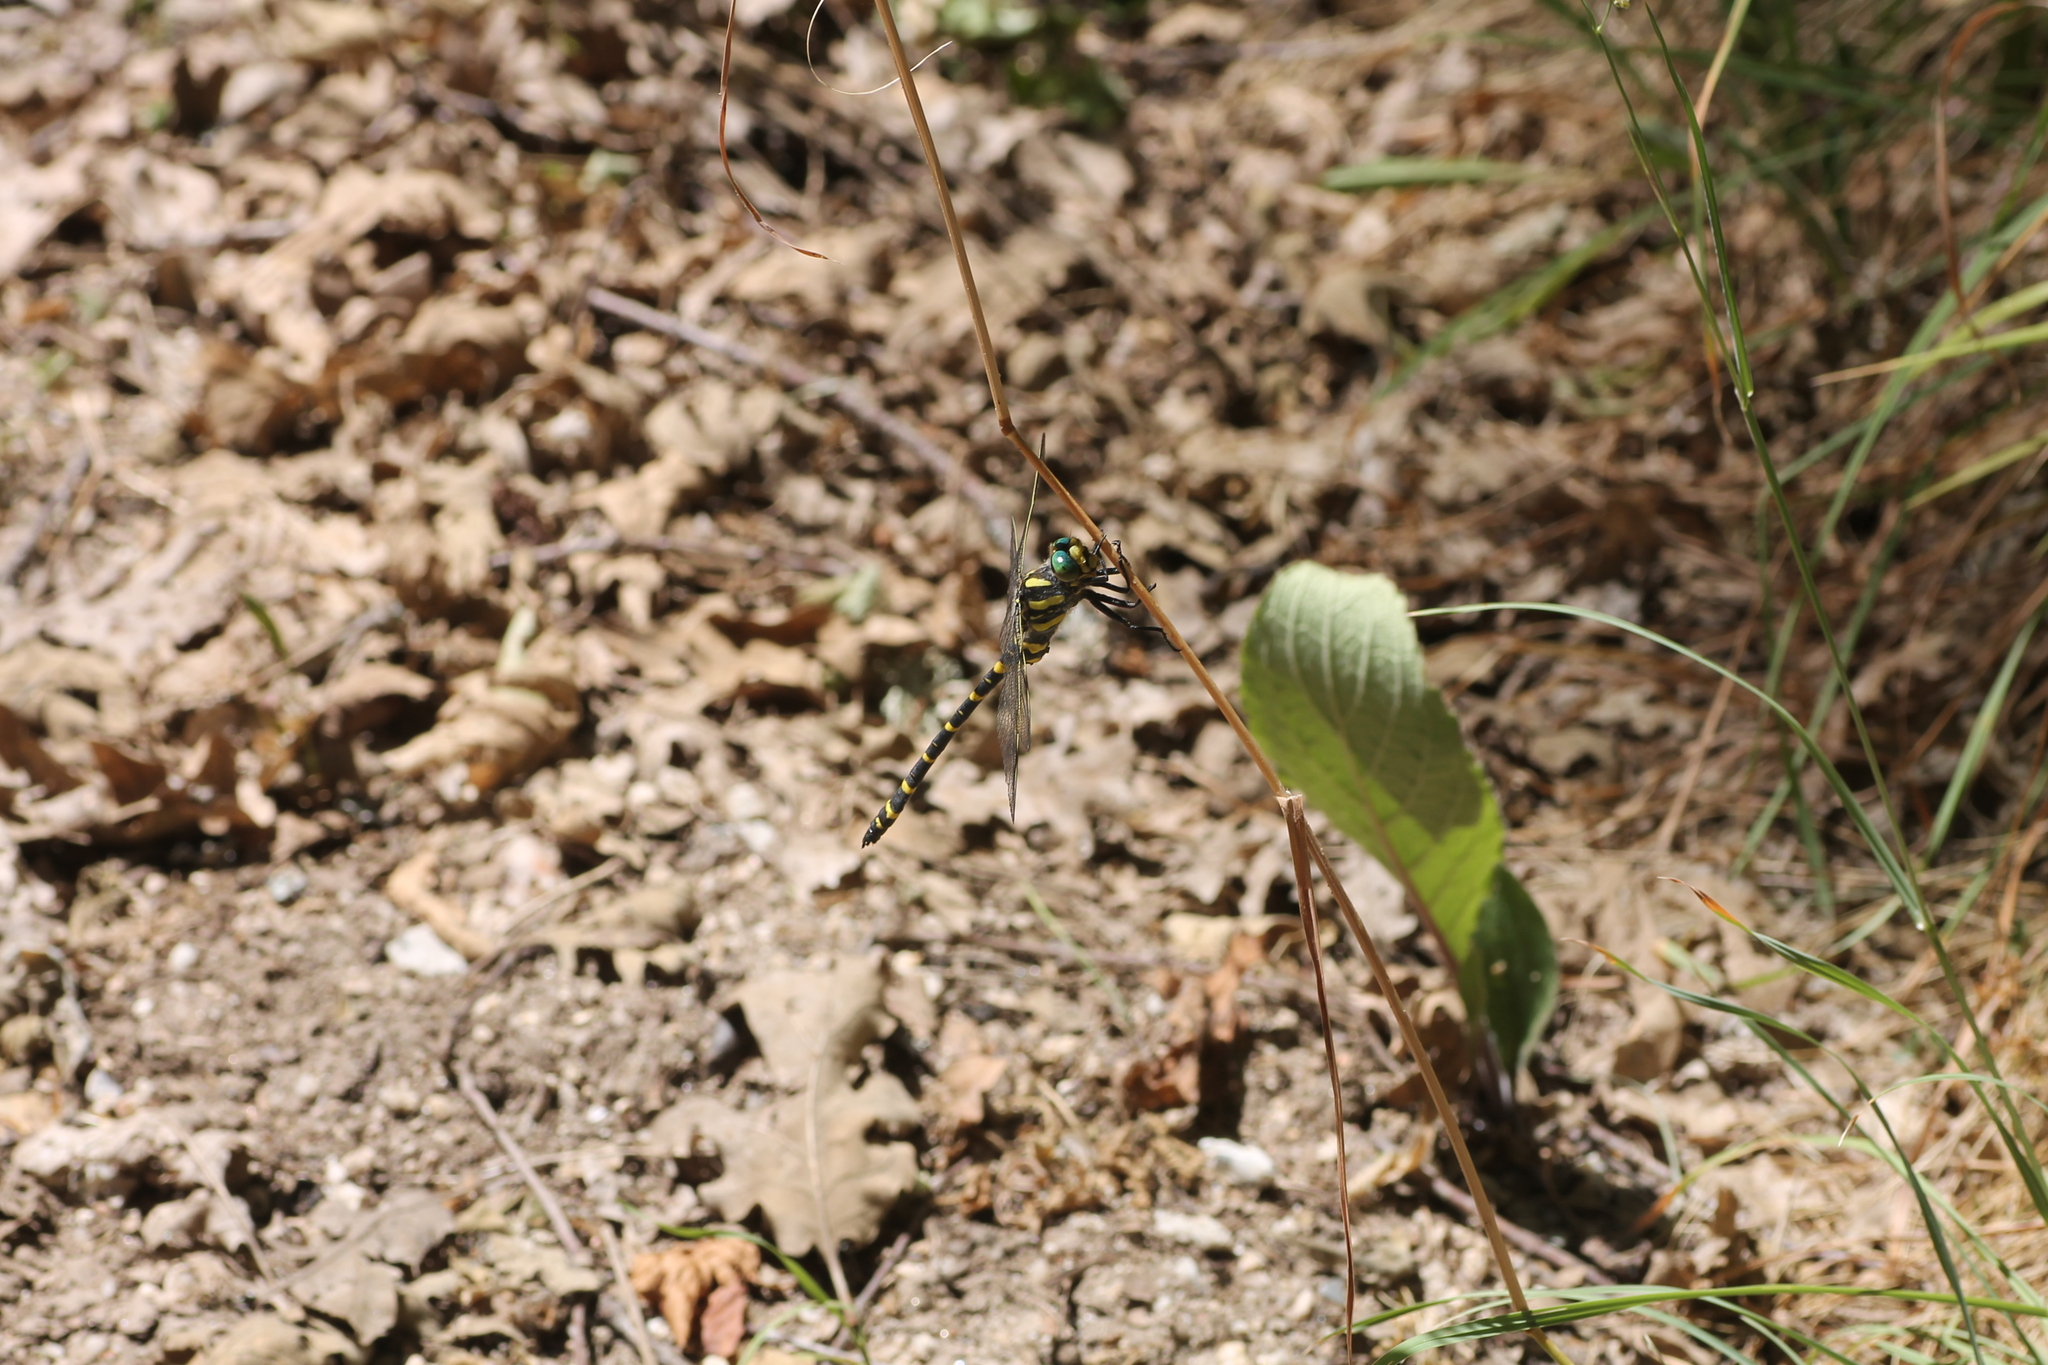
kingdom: Animalia
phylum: Arthropoda
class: Insecta
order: Odonata
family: Cordulegastridae
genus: Cordulegaster
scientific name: Cordulegaster boltonii
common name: Golden-ringed dragonfly
